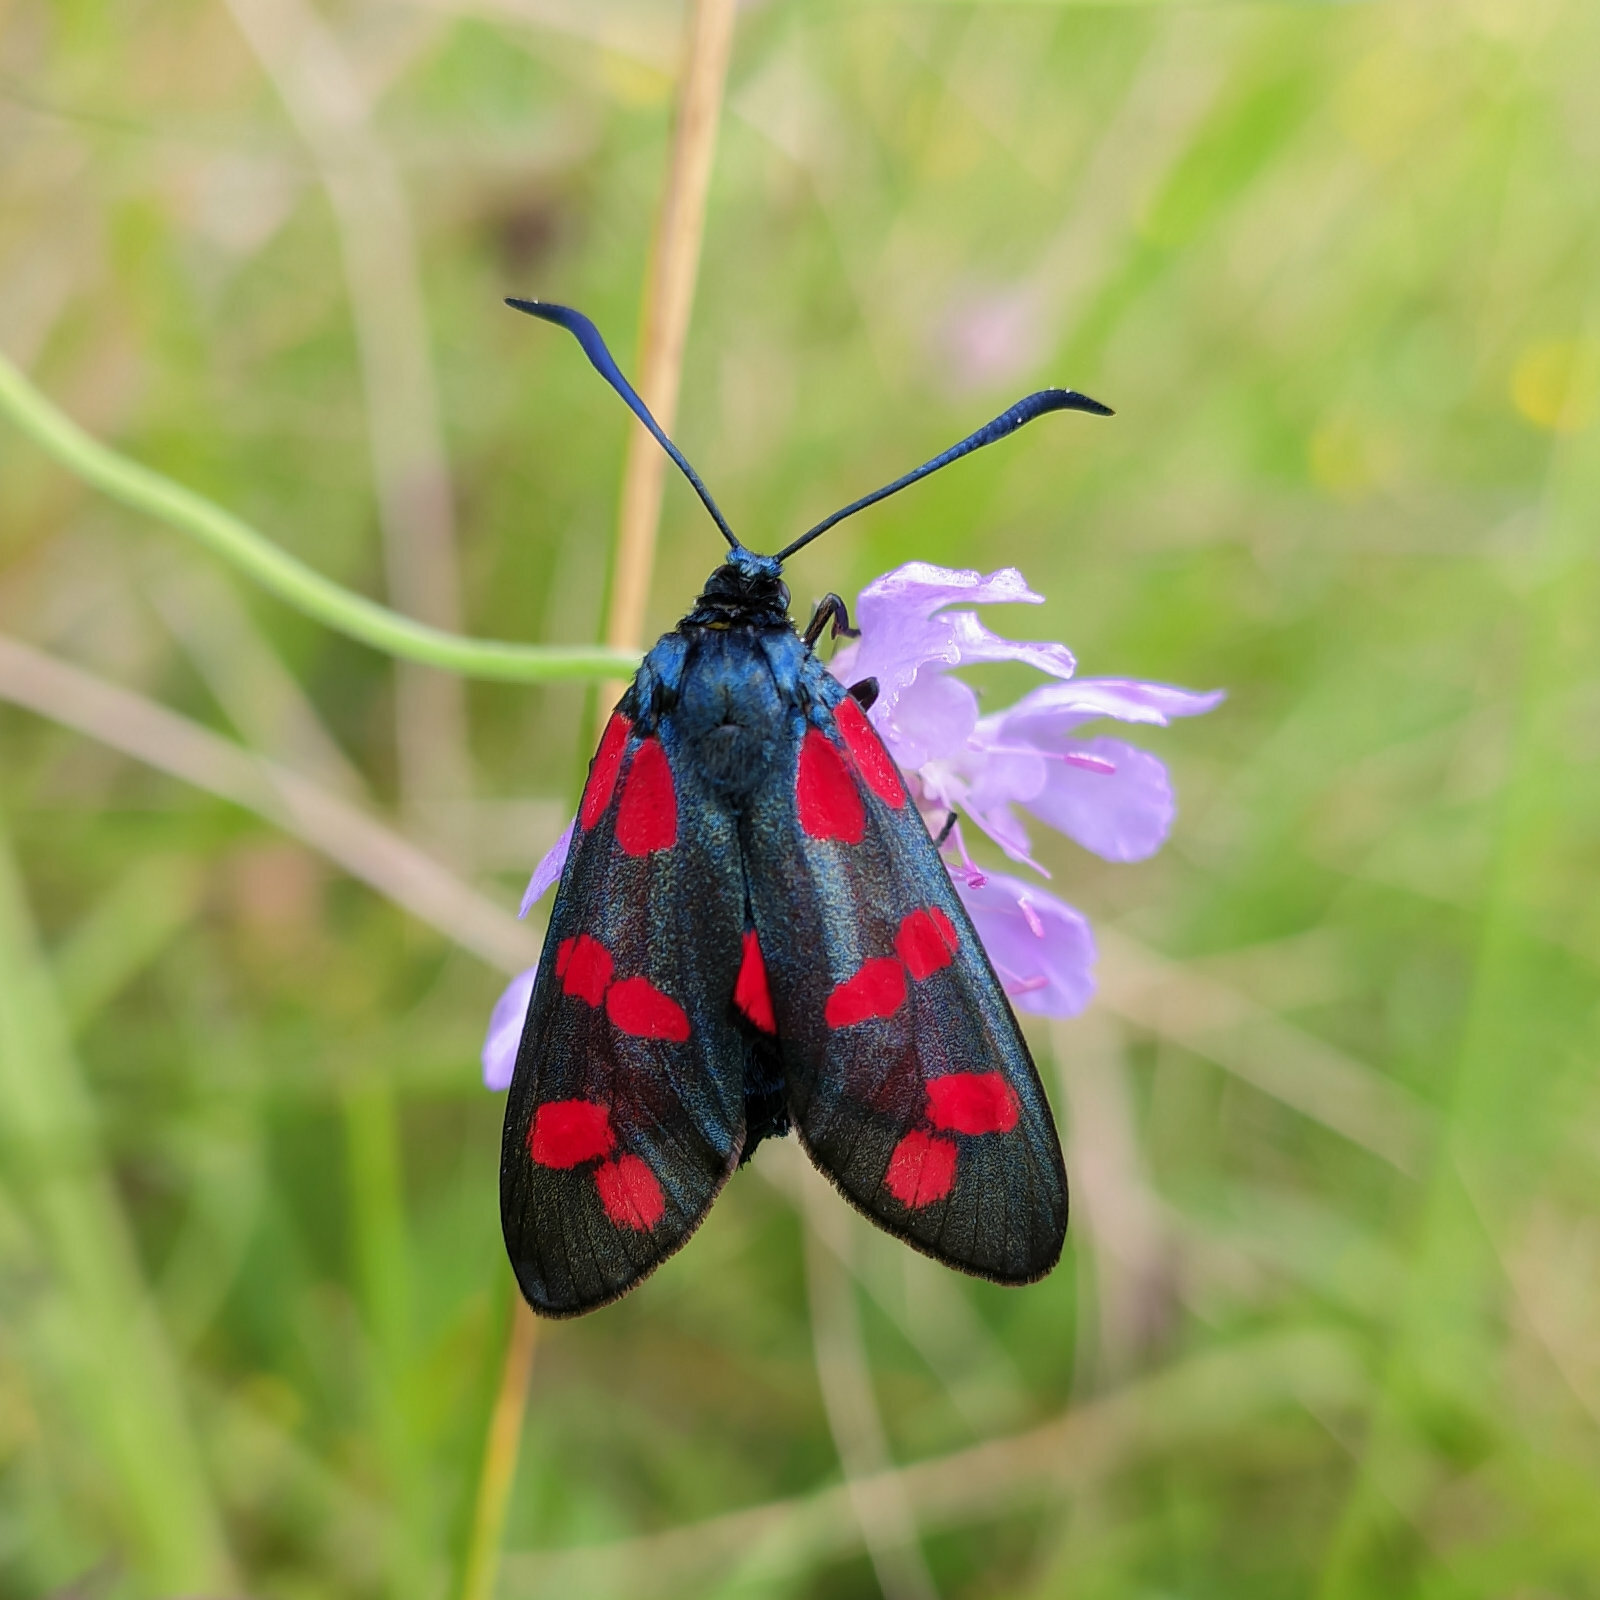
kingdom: Animalia
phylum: Arthropoda
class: Insecta
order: Lepidoptera
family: Zygaenidae
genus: Zygaena
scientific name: Zygaena filipendulae
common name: Six-spot burnet
